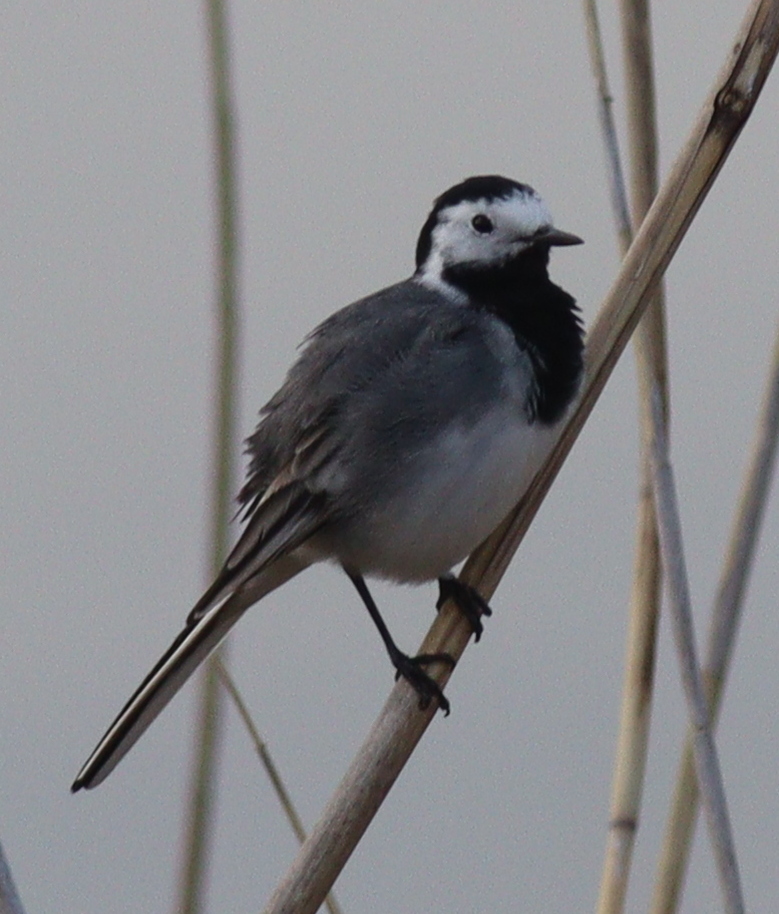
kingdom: Animalia
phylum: Chordata
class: Aves
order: Passeriformes
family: Motacillidae
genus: Motacilla
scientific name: Motacilla alba
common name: White wagtail
